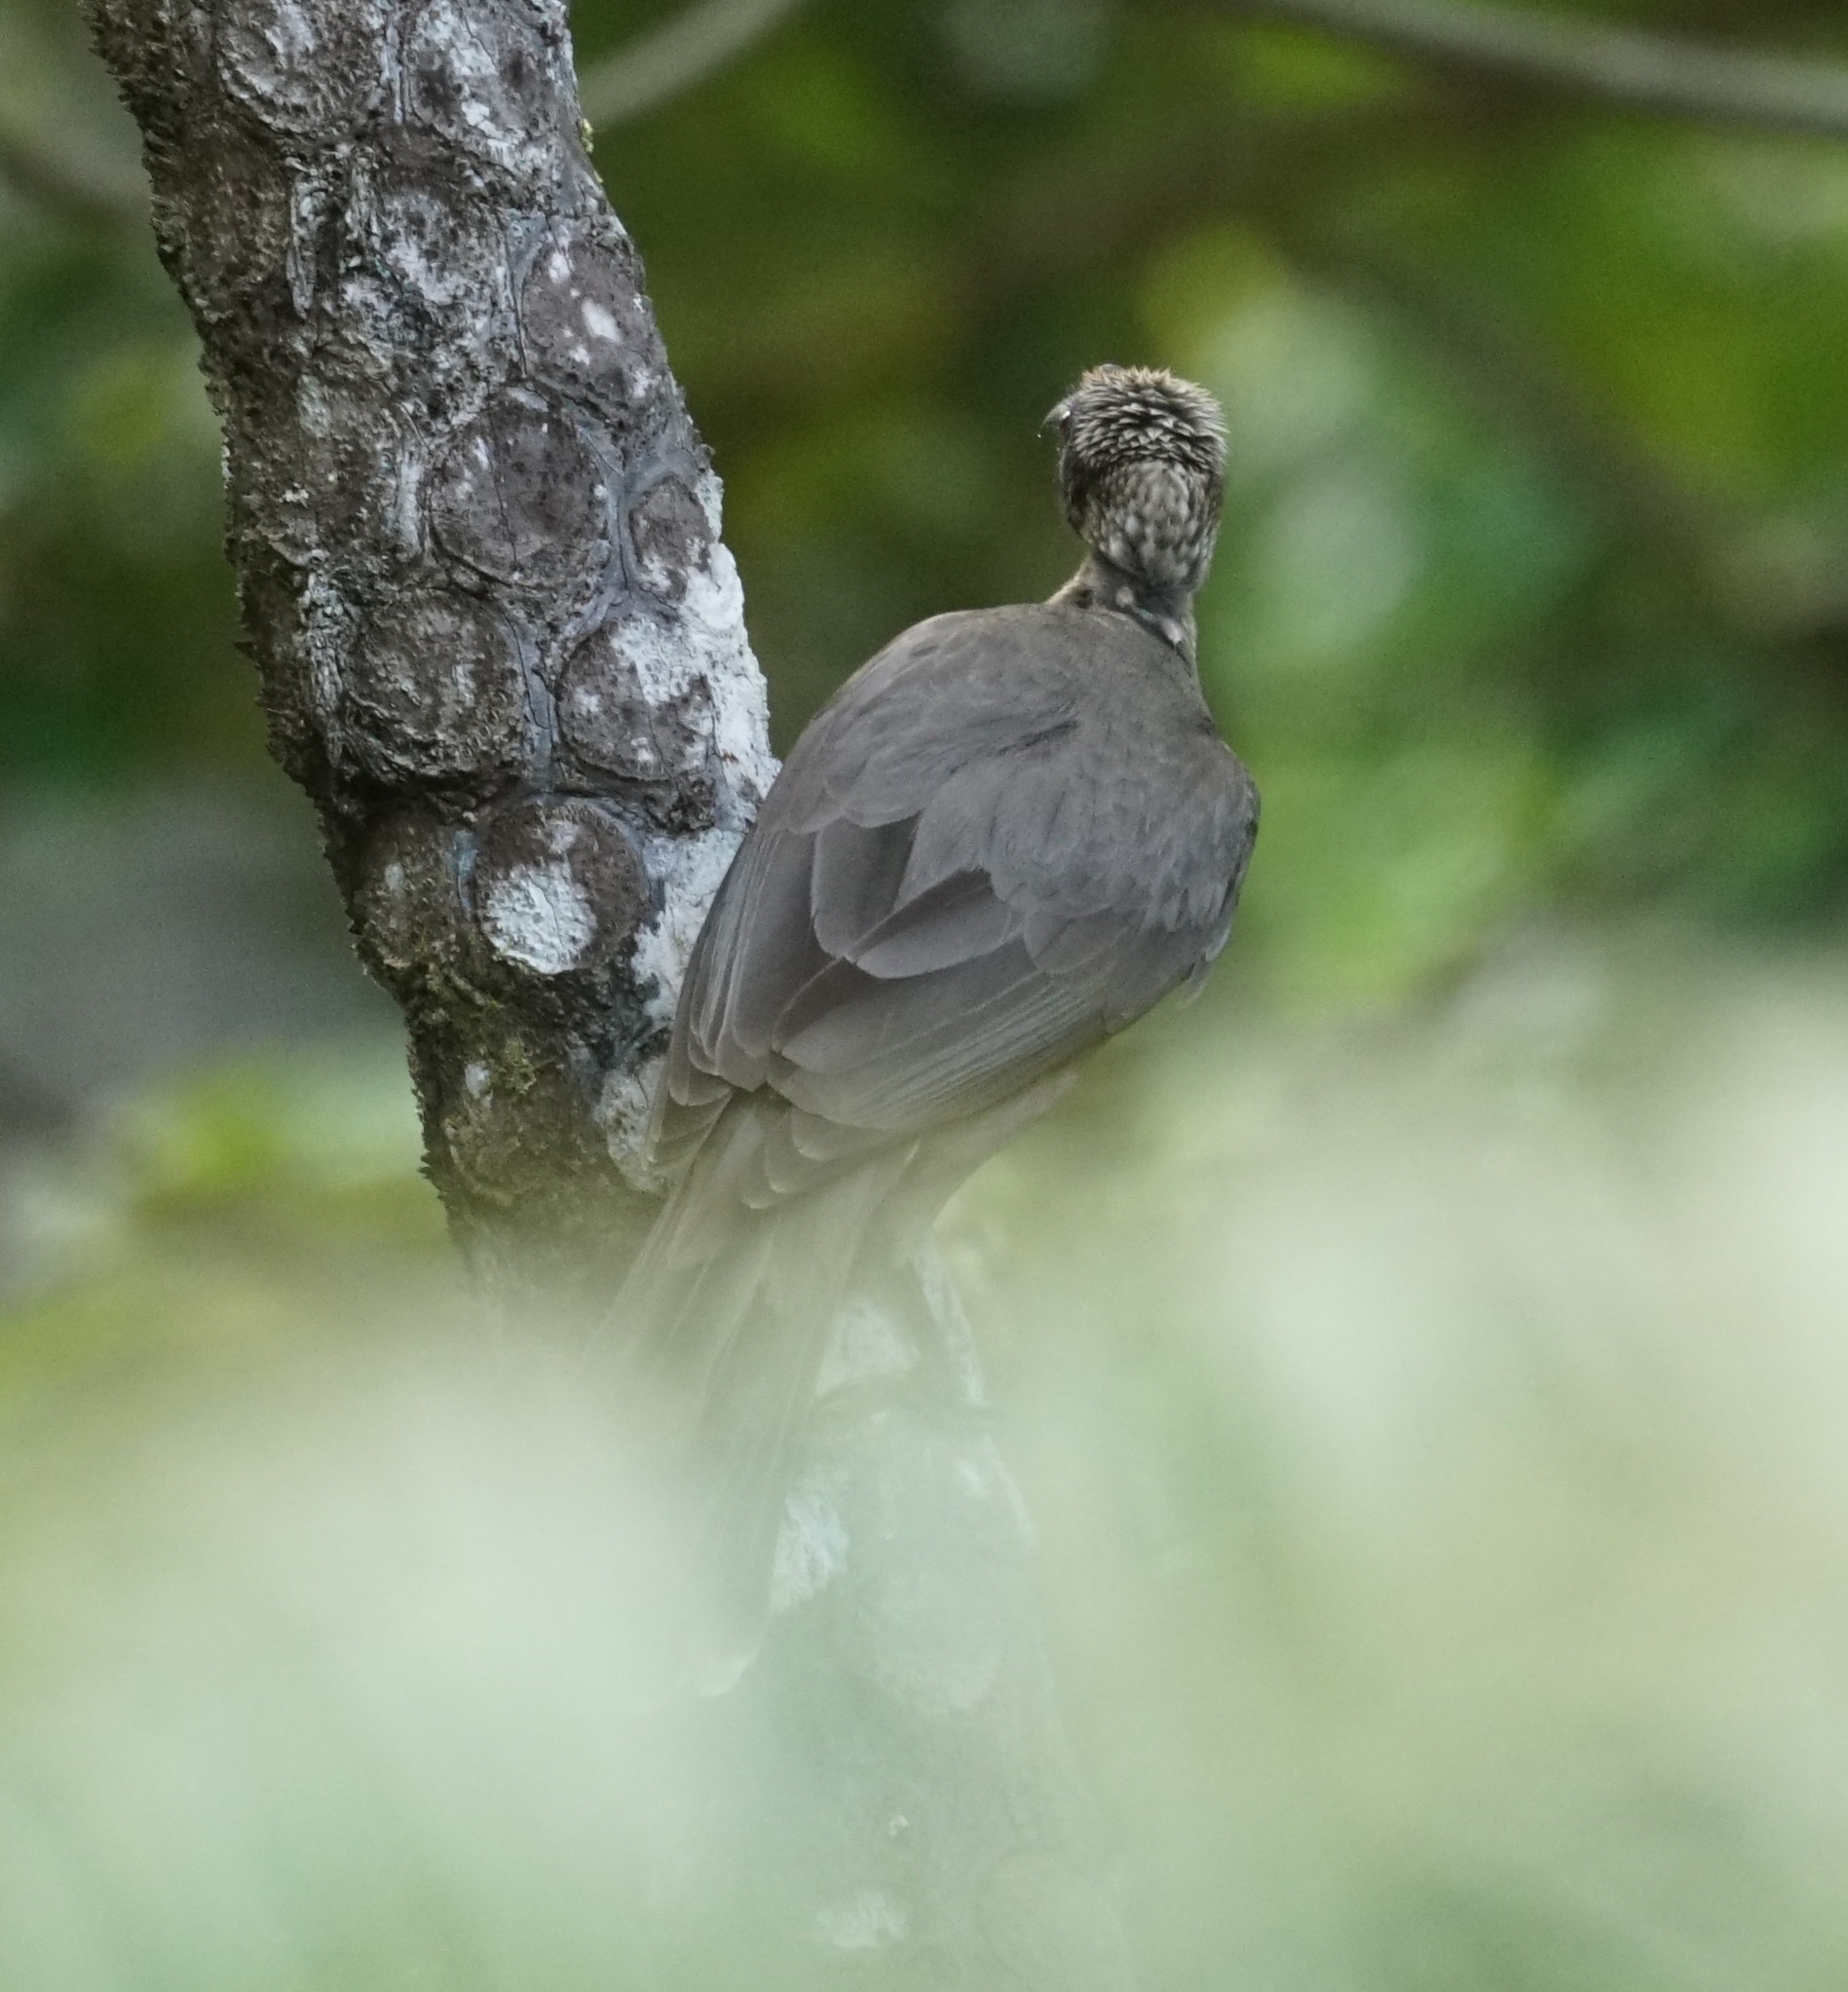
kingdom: Animalia
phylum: Chordata
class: Aves
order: Passeriformes
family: Meliphagidae
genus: Philemon
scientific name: Philemon buceroides
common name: Helmeted friarbird
